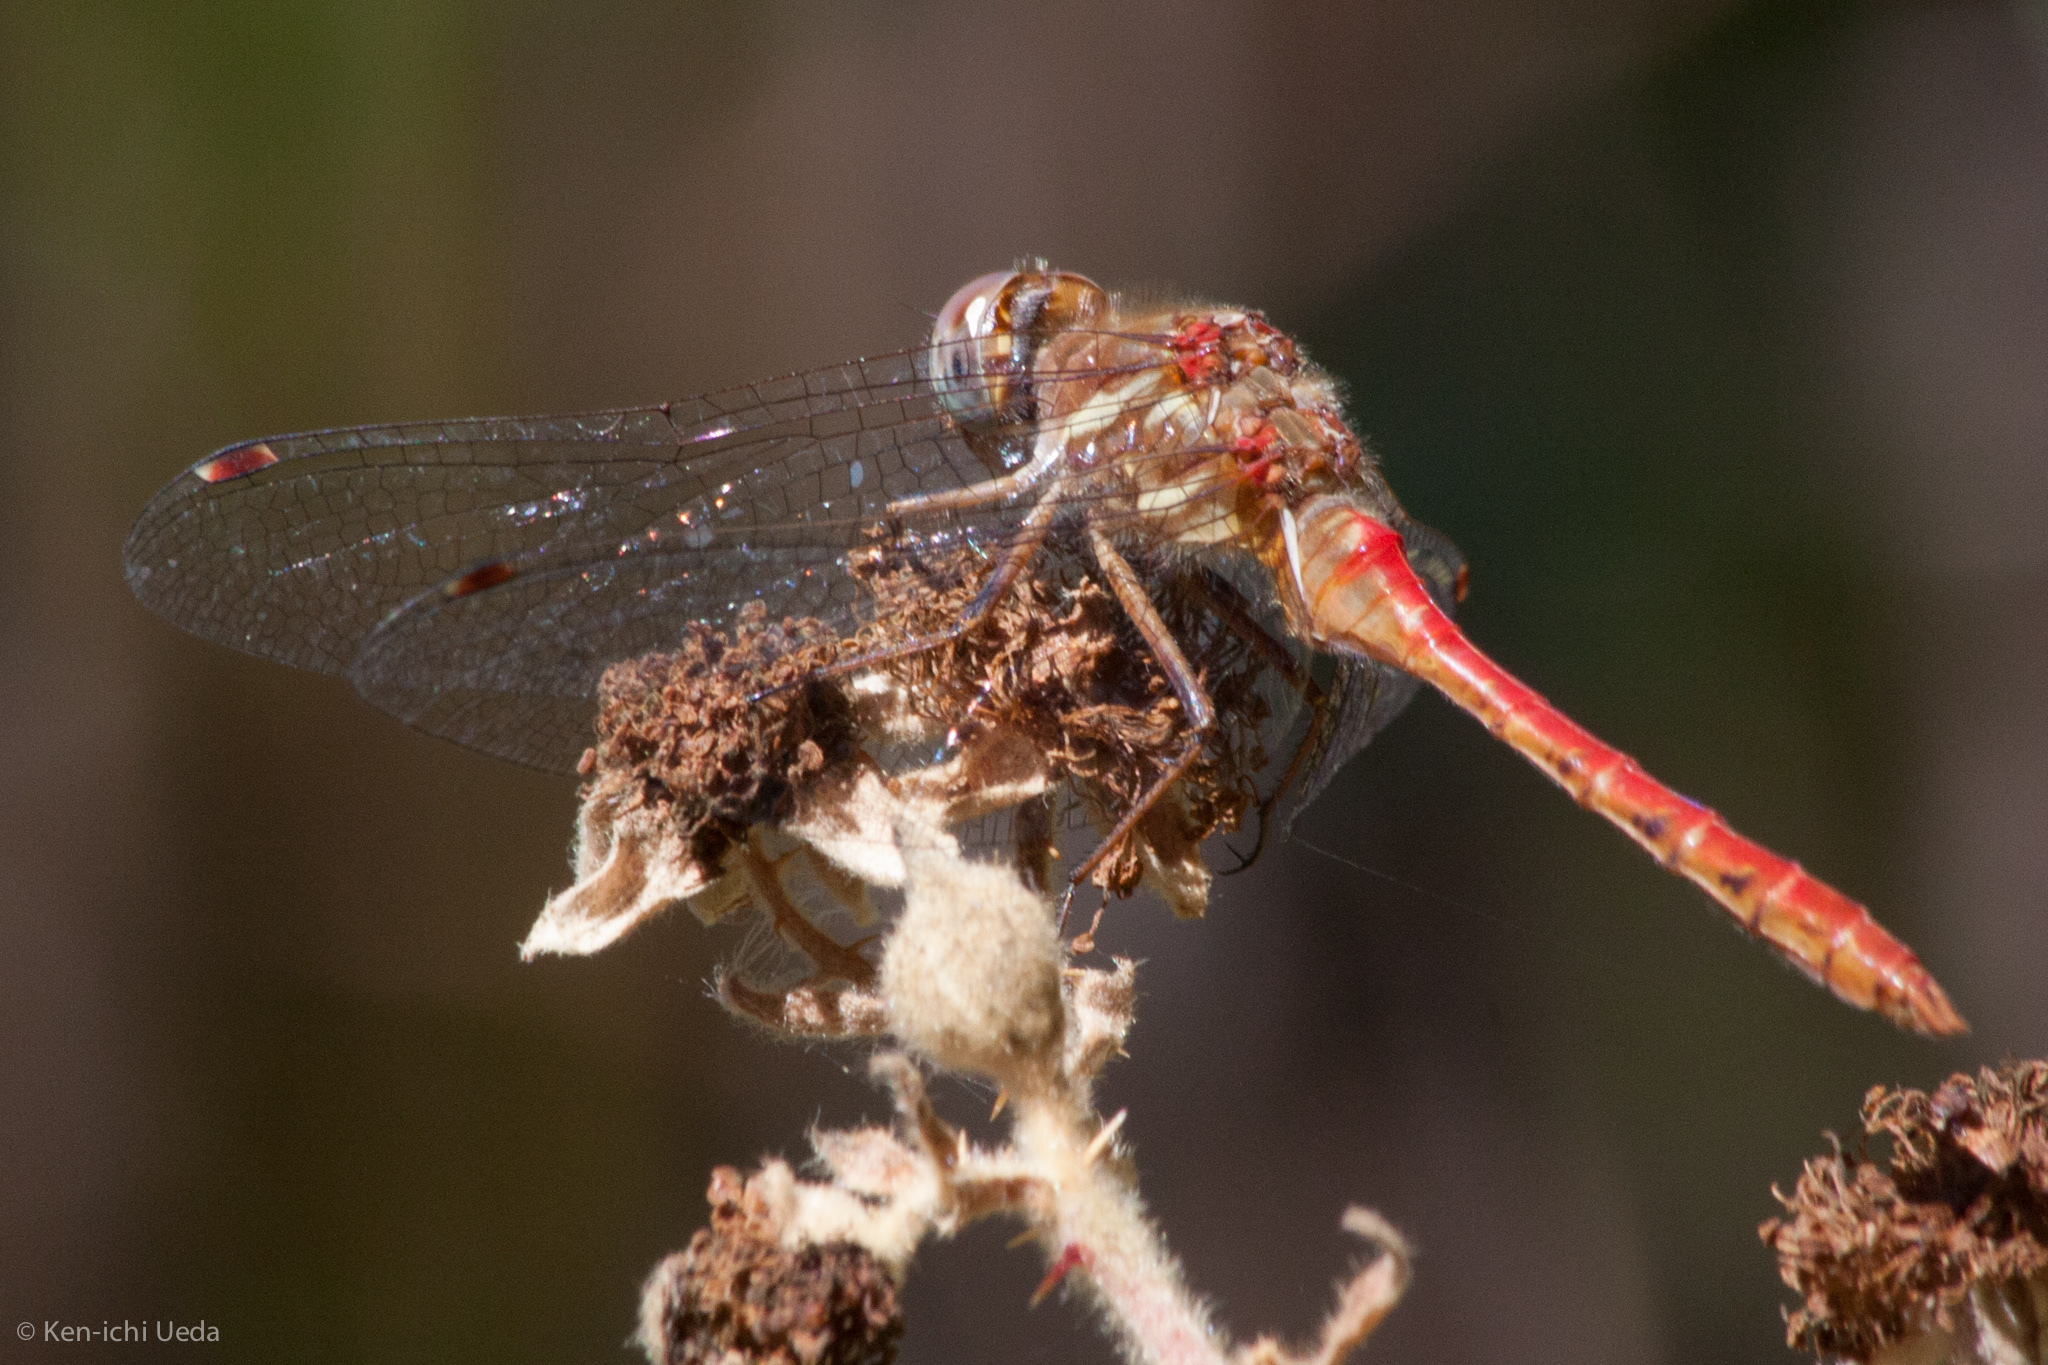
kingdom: Animalia
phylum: Arthropoda
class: Insecta
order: Odonata
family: Libellulidae
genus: Sympetrum
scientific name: Sympetrum pallipes
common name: Striped meadowhawk
